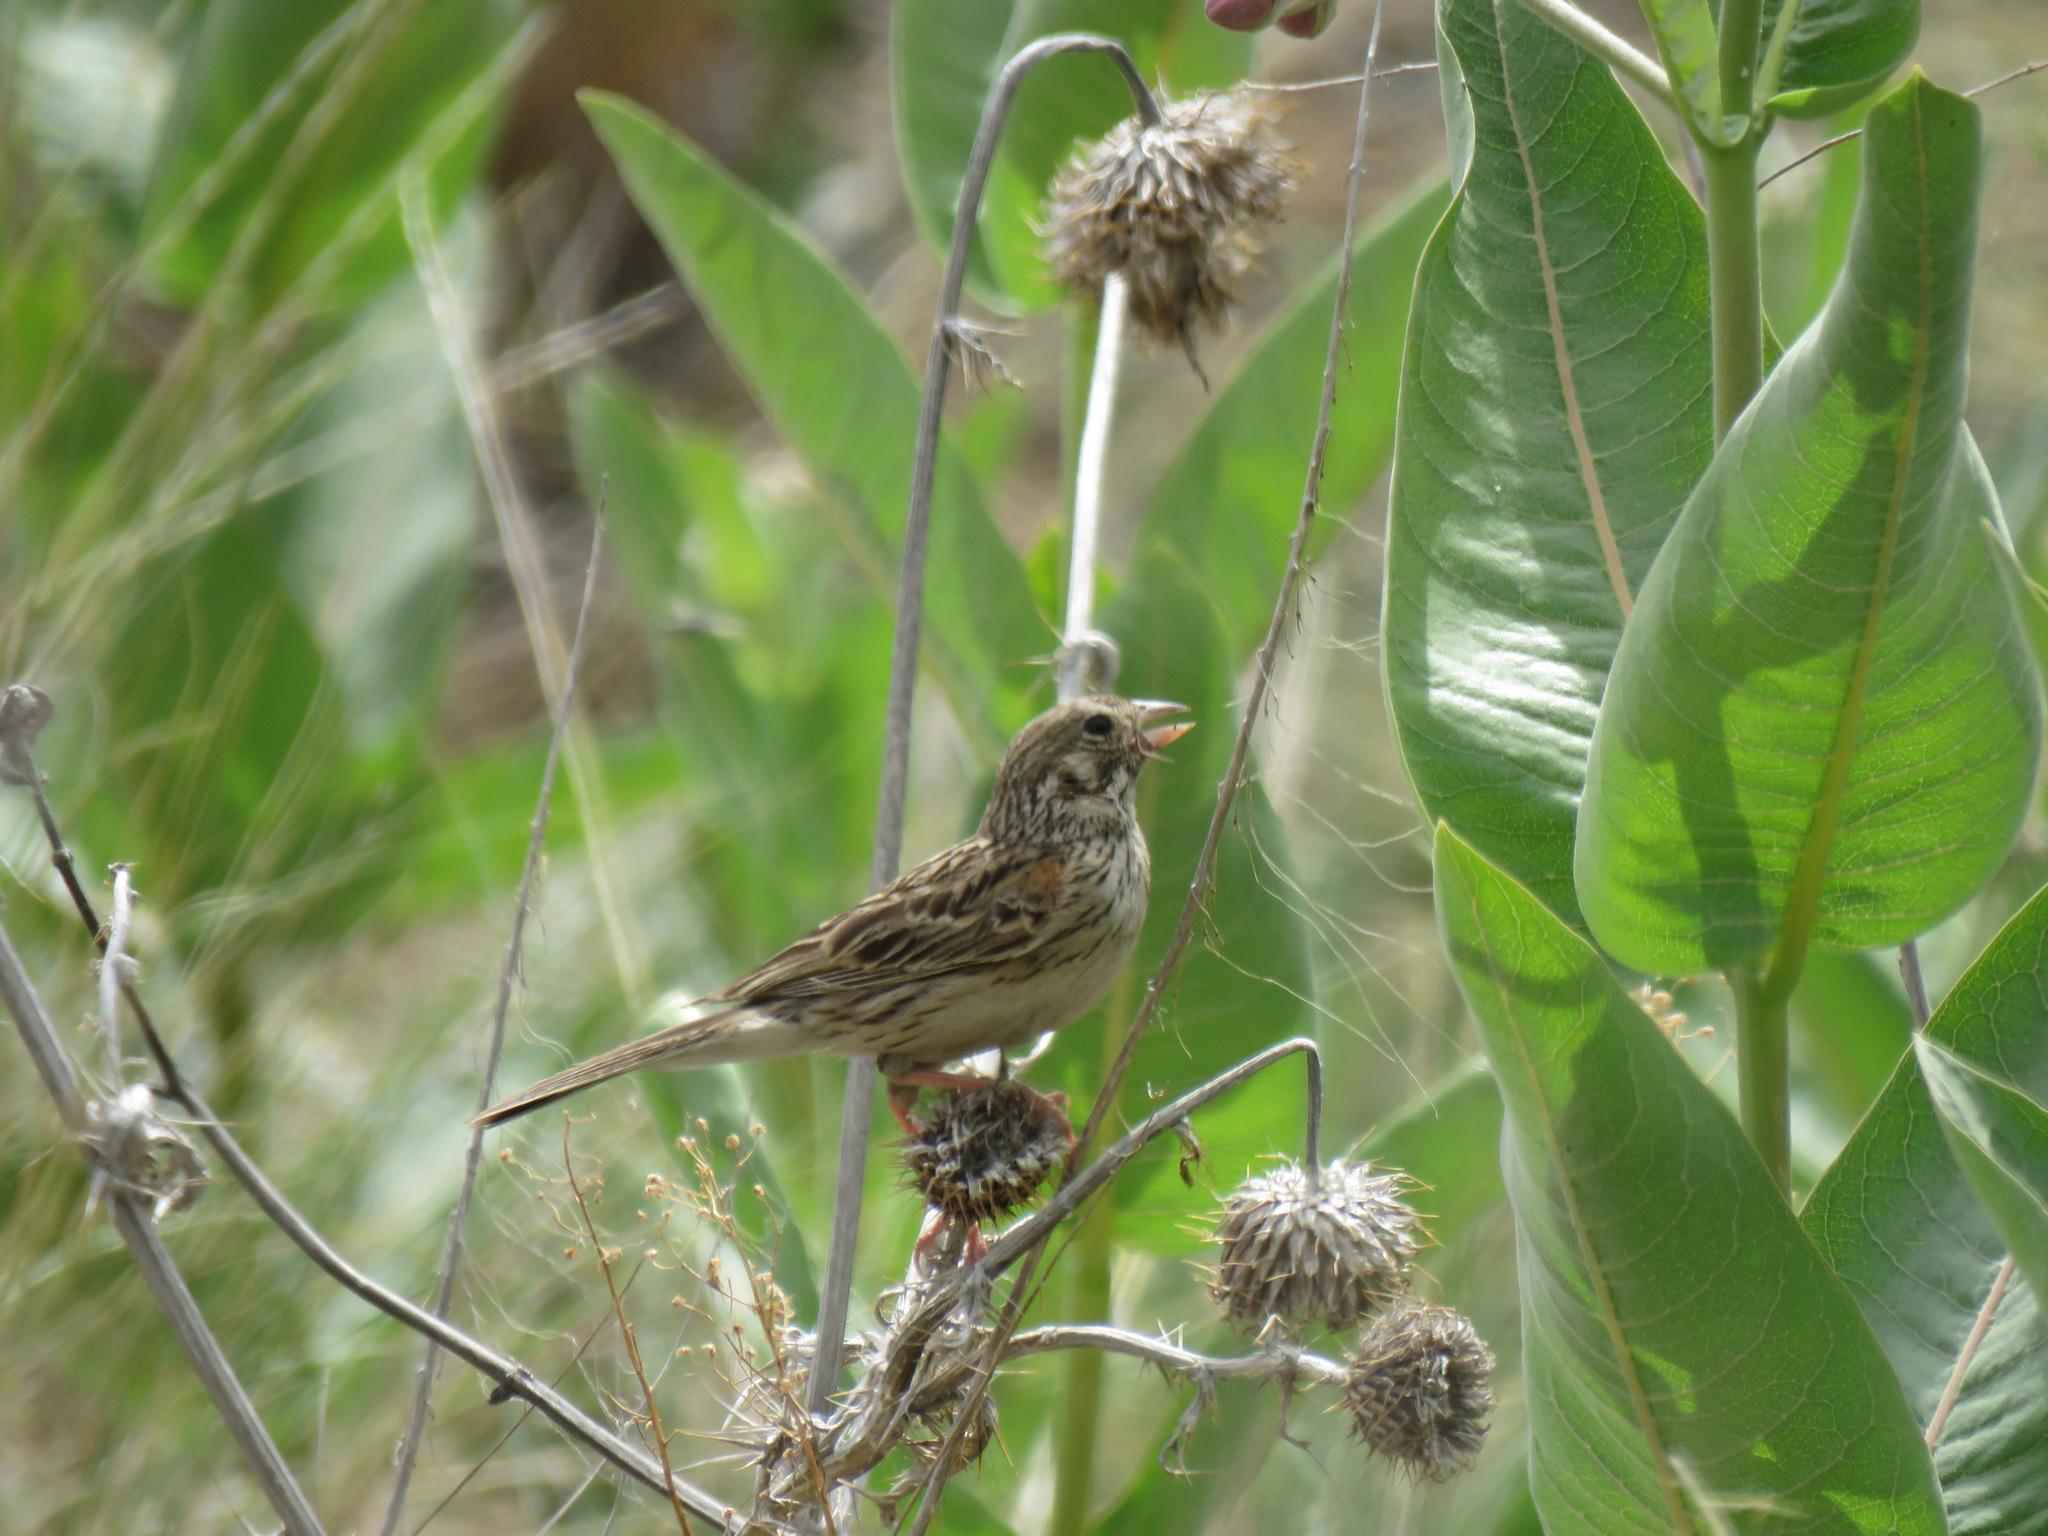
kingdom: Animalia
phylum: Chordata
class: Aves
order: Passeriformes
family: Passerellidae
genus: Pooecetes
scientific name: Pooecetes gramineus
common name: Vesper sparrow
